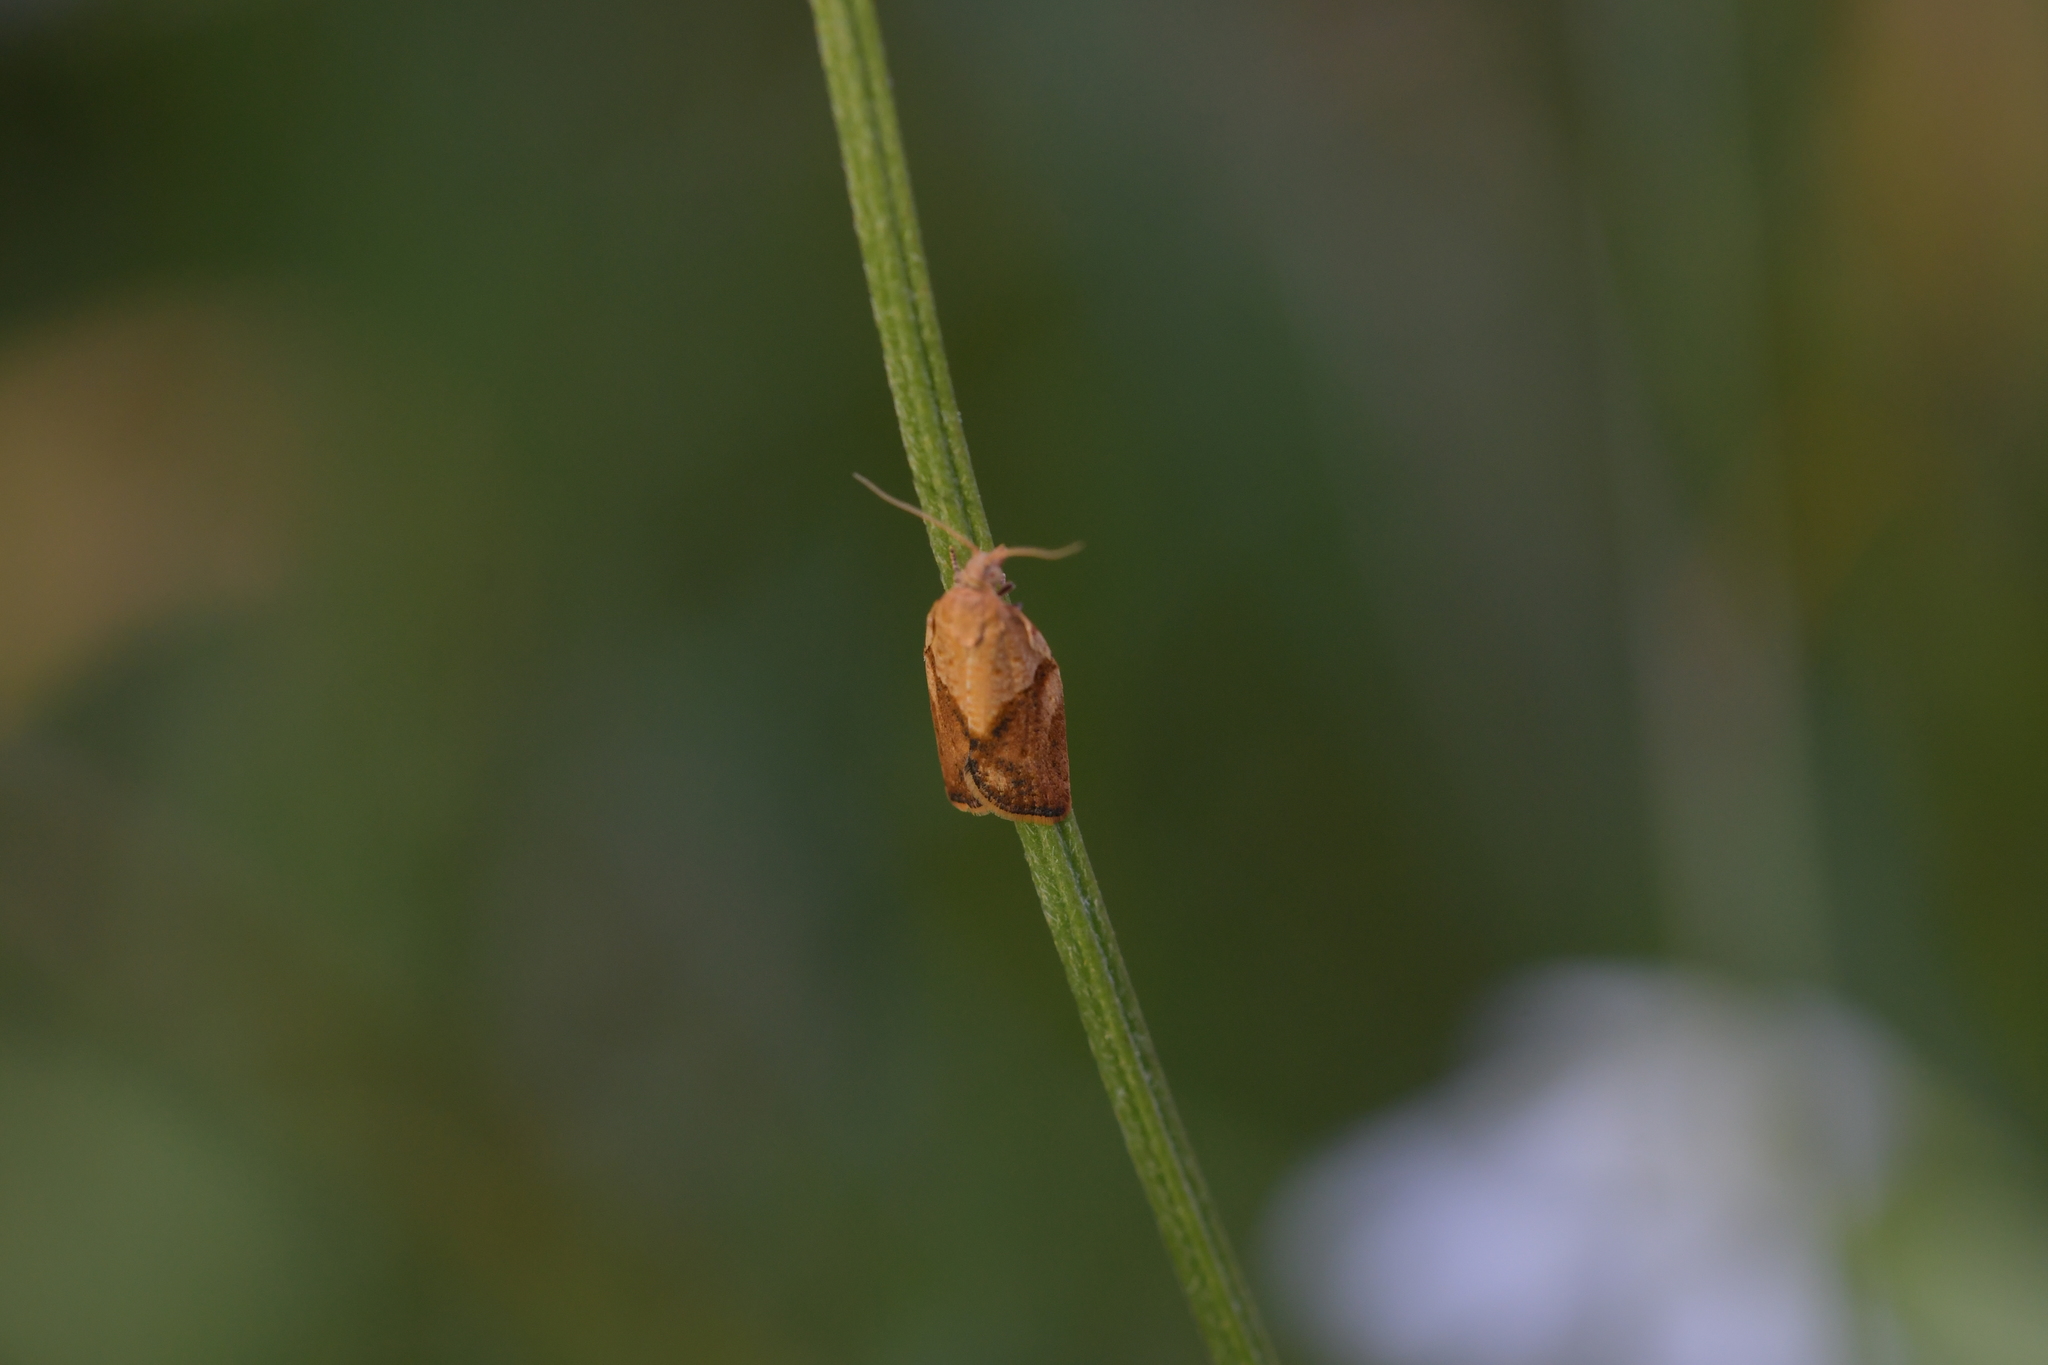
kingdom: Animalia
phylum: Arthropoda
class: Insecta
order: Lepidoptera
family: Tortricidae
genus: Epiphyas
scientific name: Epiphyas postvittana
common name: Light brown apple moth
